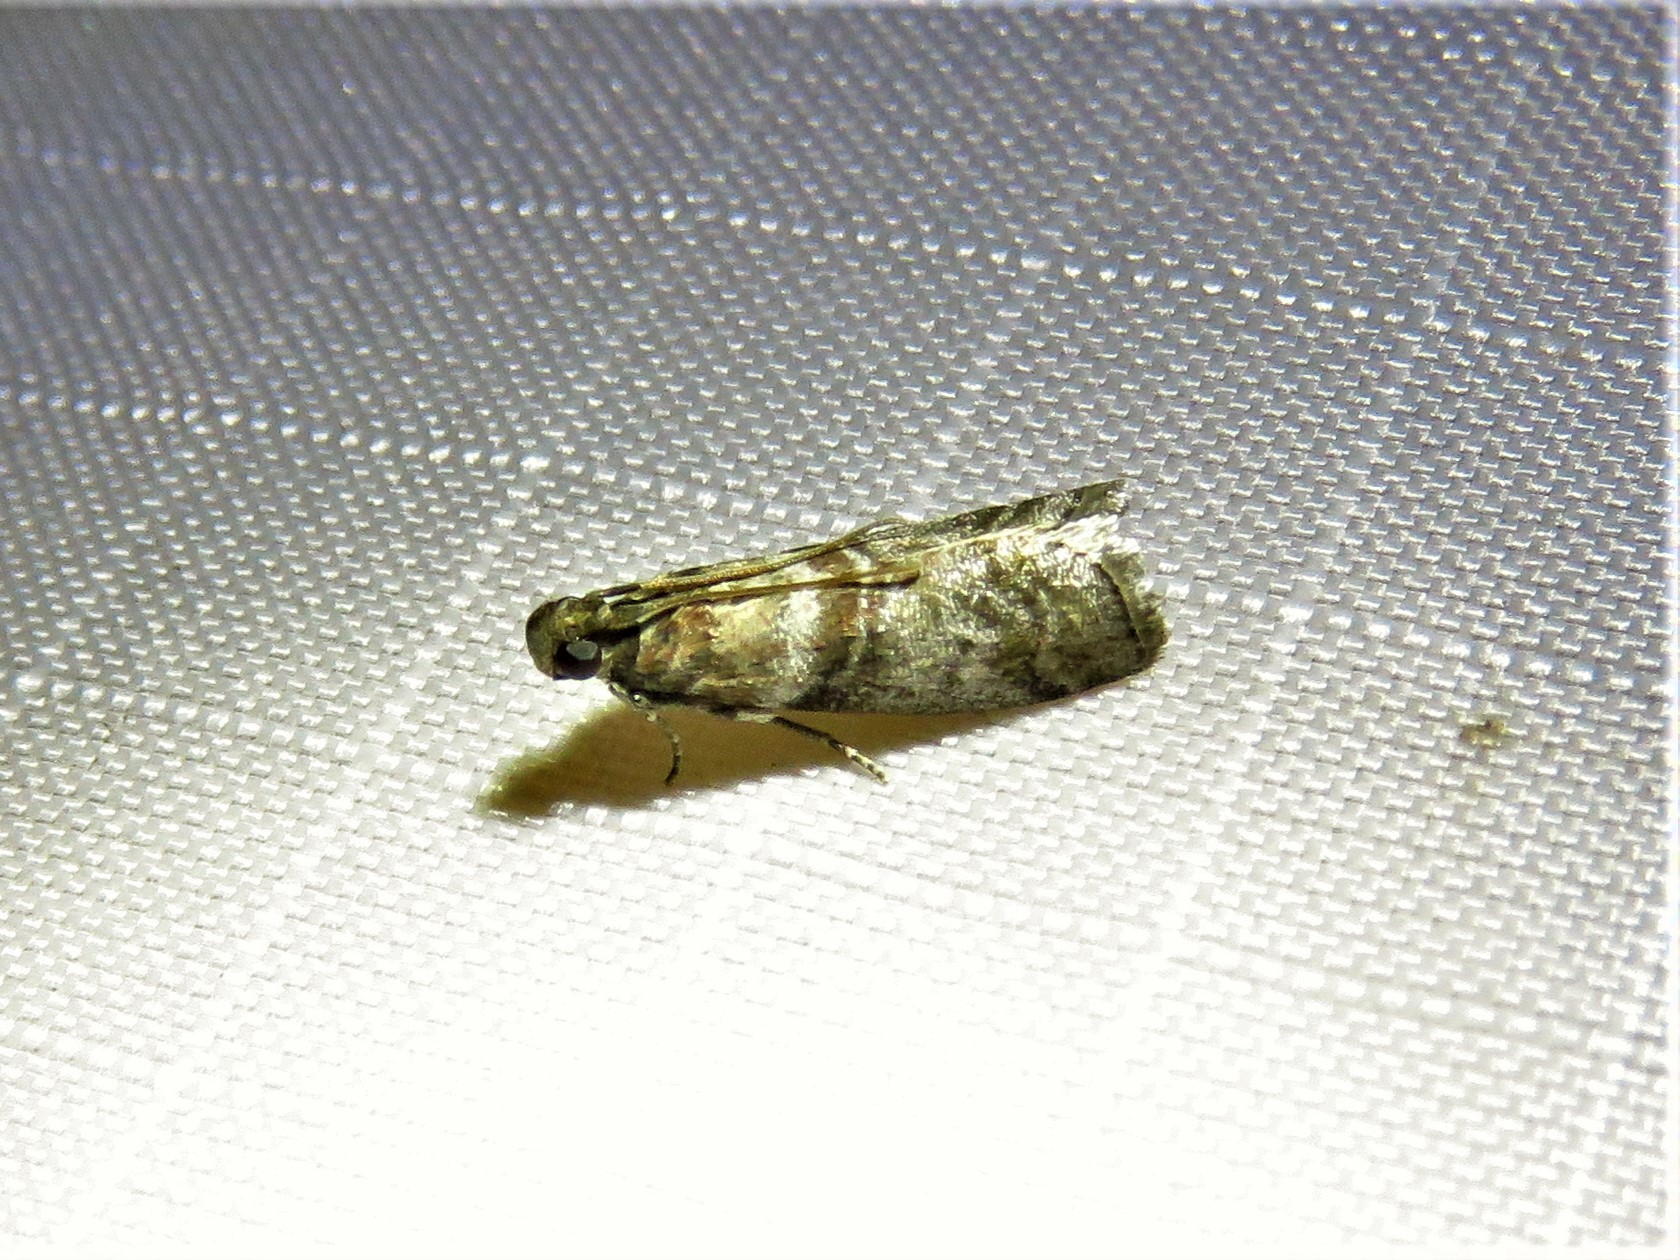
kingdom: Animalia
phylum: Arthropoda
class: Insecta
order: Lepidoptera
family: Pyralidae
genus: Sciota
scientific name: Sciota uvinella
